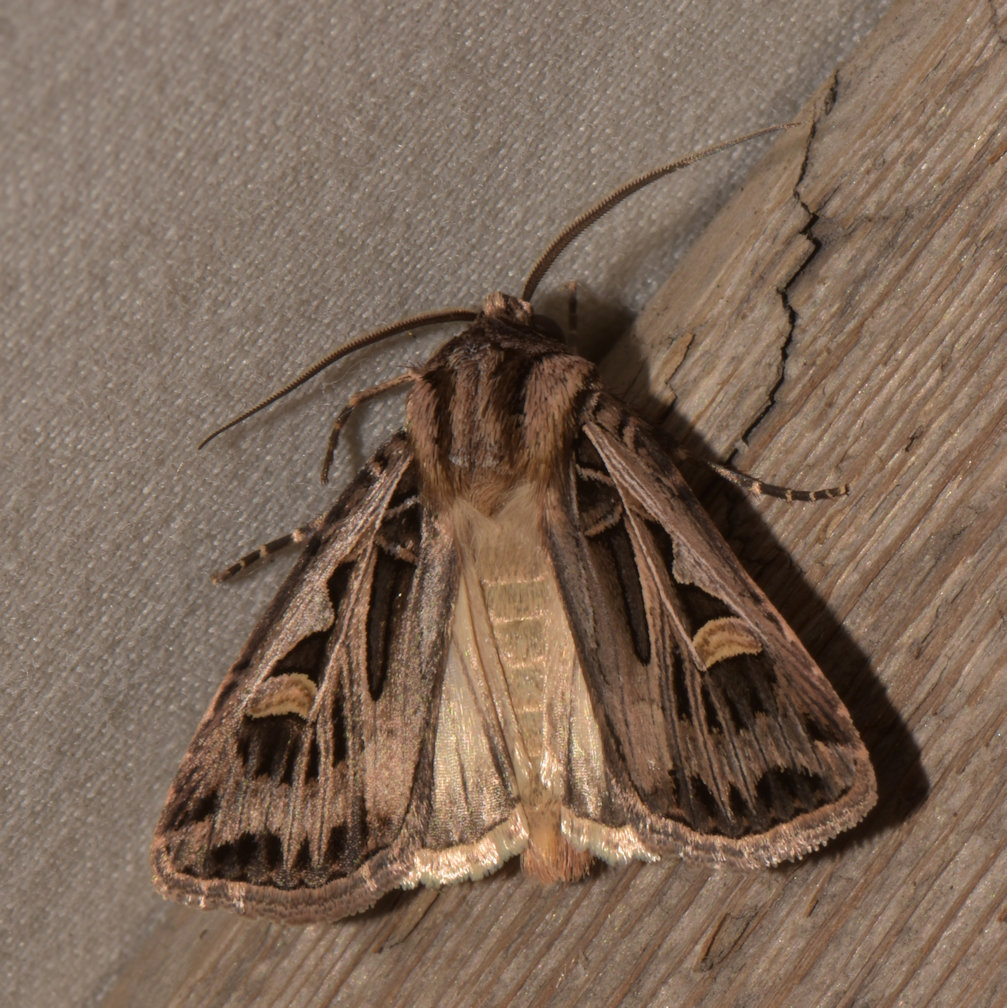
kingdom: Animalia
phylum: Arthropoda
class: Insecta
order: Lepidoptera
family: Noctuidae
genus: Feltia
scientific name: Feltia jaculifera
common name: Dingy cutworm moth
